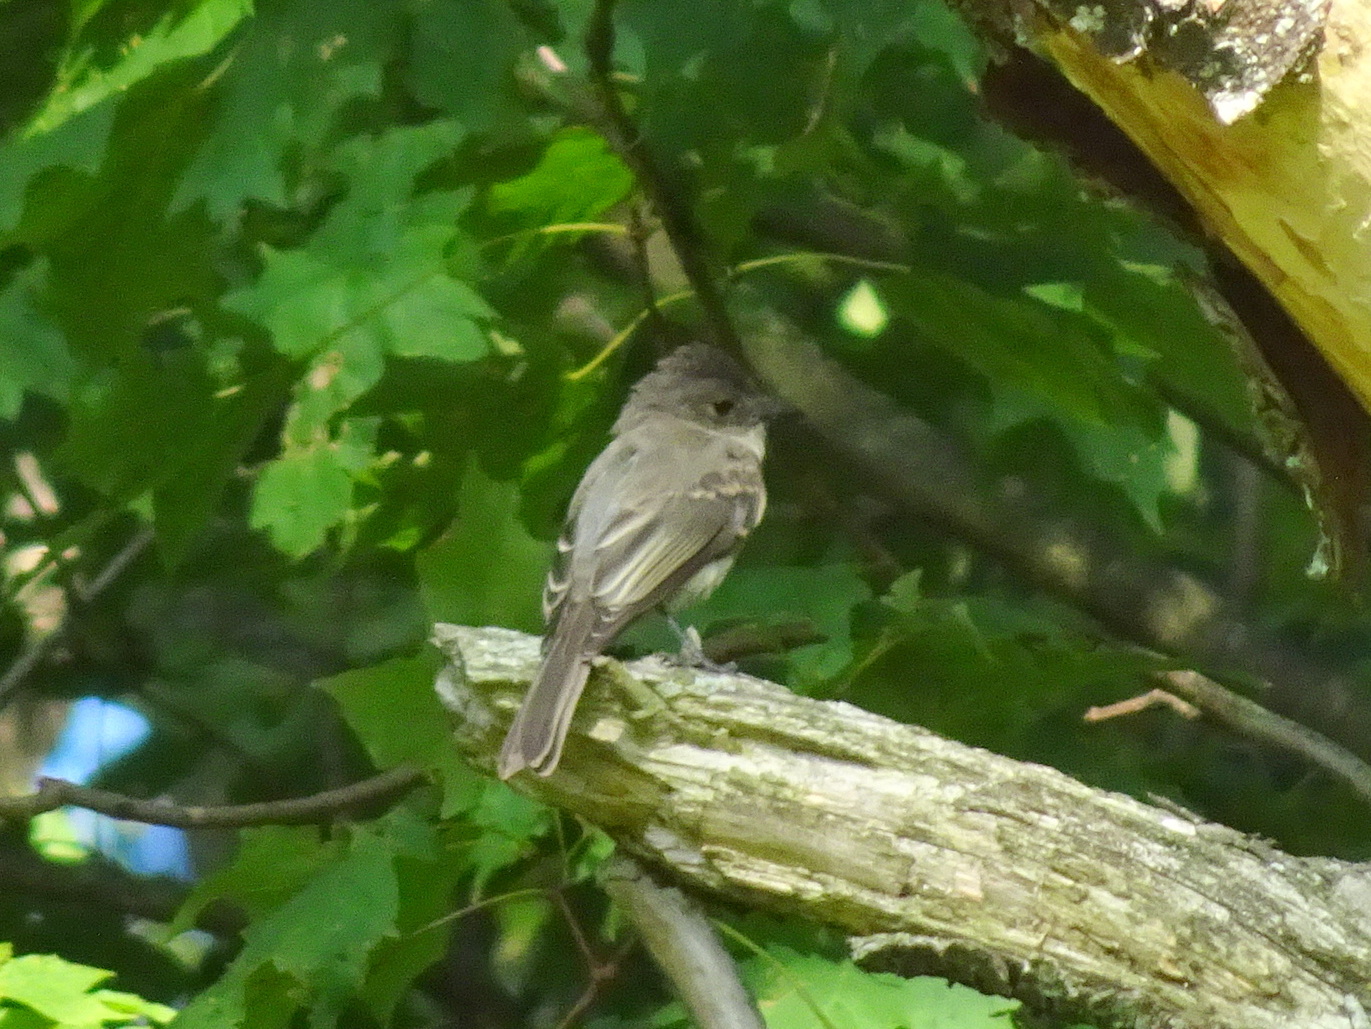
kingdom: Animalia
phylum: Chordata
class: Aves
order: Passeriformes
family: Tyrannidae
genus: Sayornis
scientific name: Sayornis phoebe
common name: Eastern phoebe
